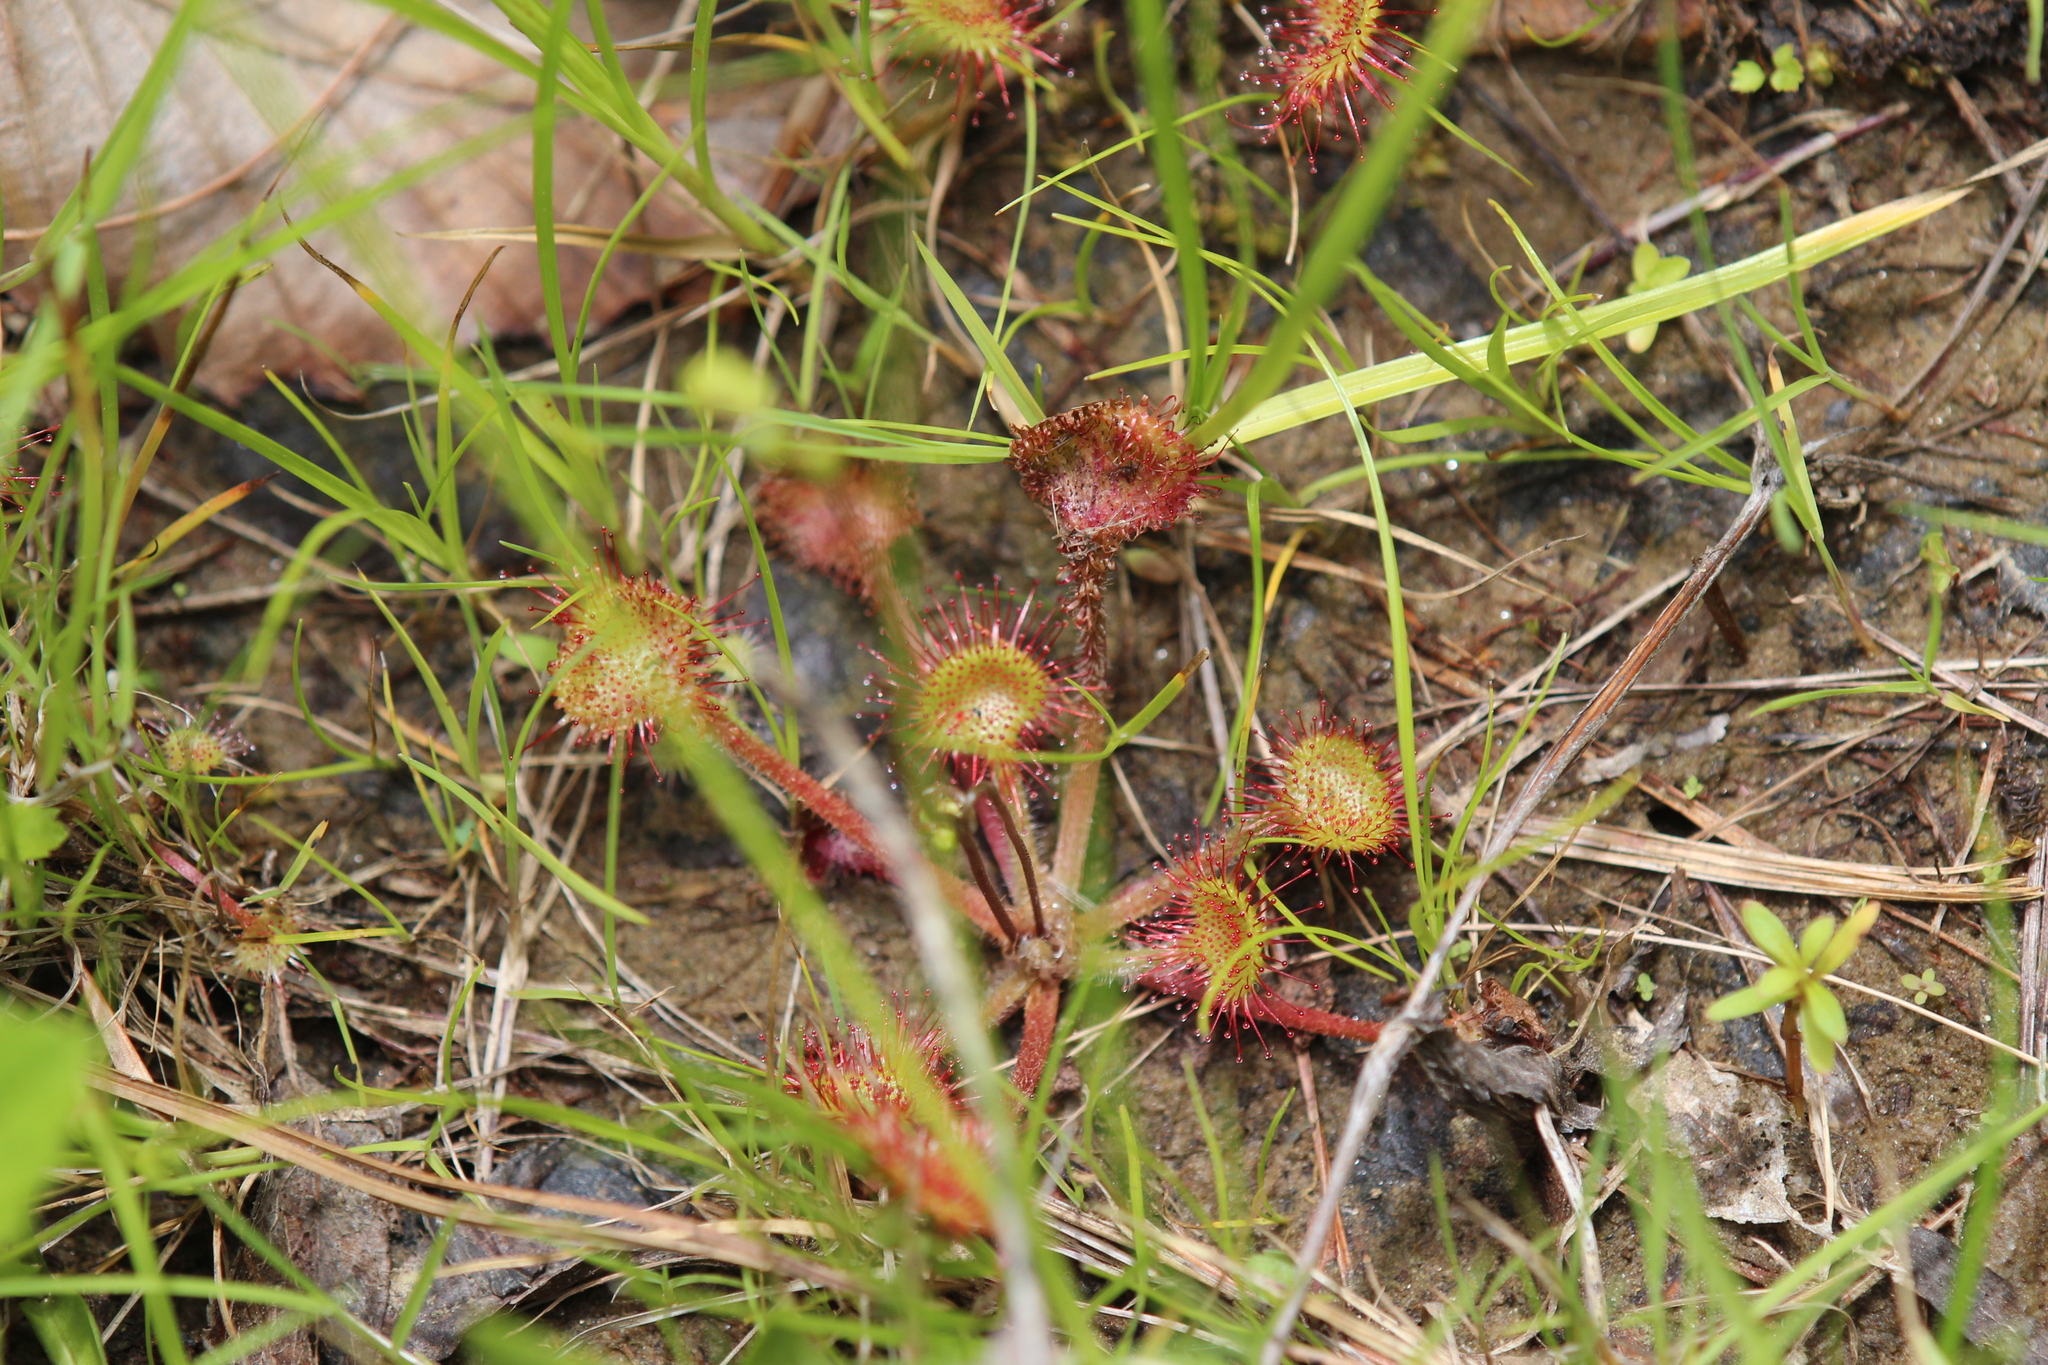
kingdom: Plantae
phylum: Tracheophyta
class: Magnoliopsida
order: Caryophyllales
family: Droseraceae
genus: Drosera
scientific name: Drosera rotundifolia
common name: Round-leaved sundew
